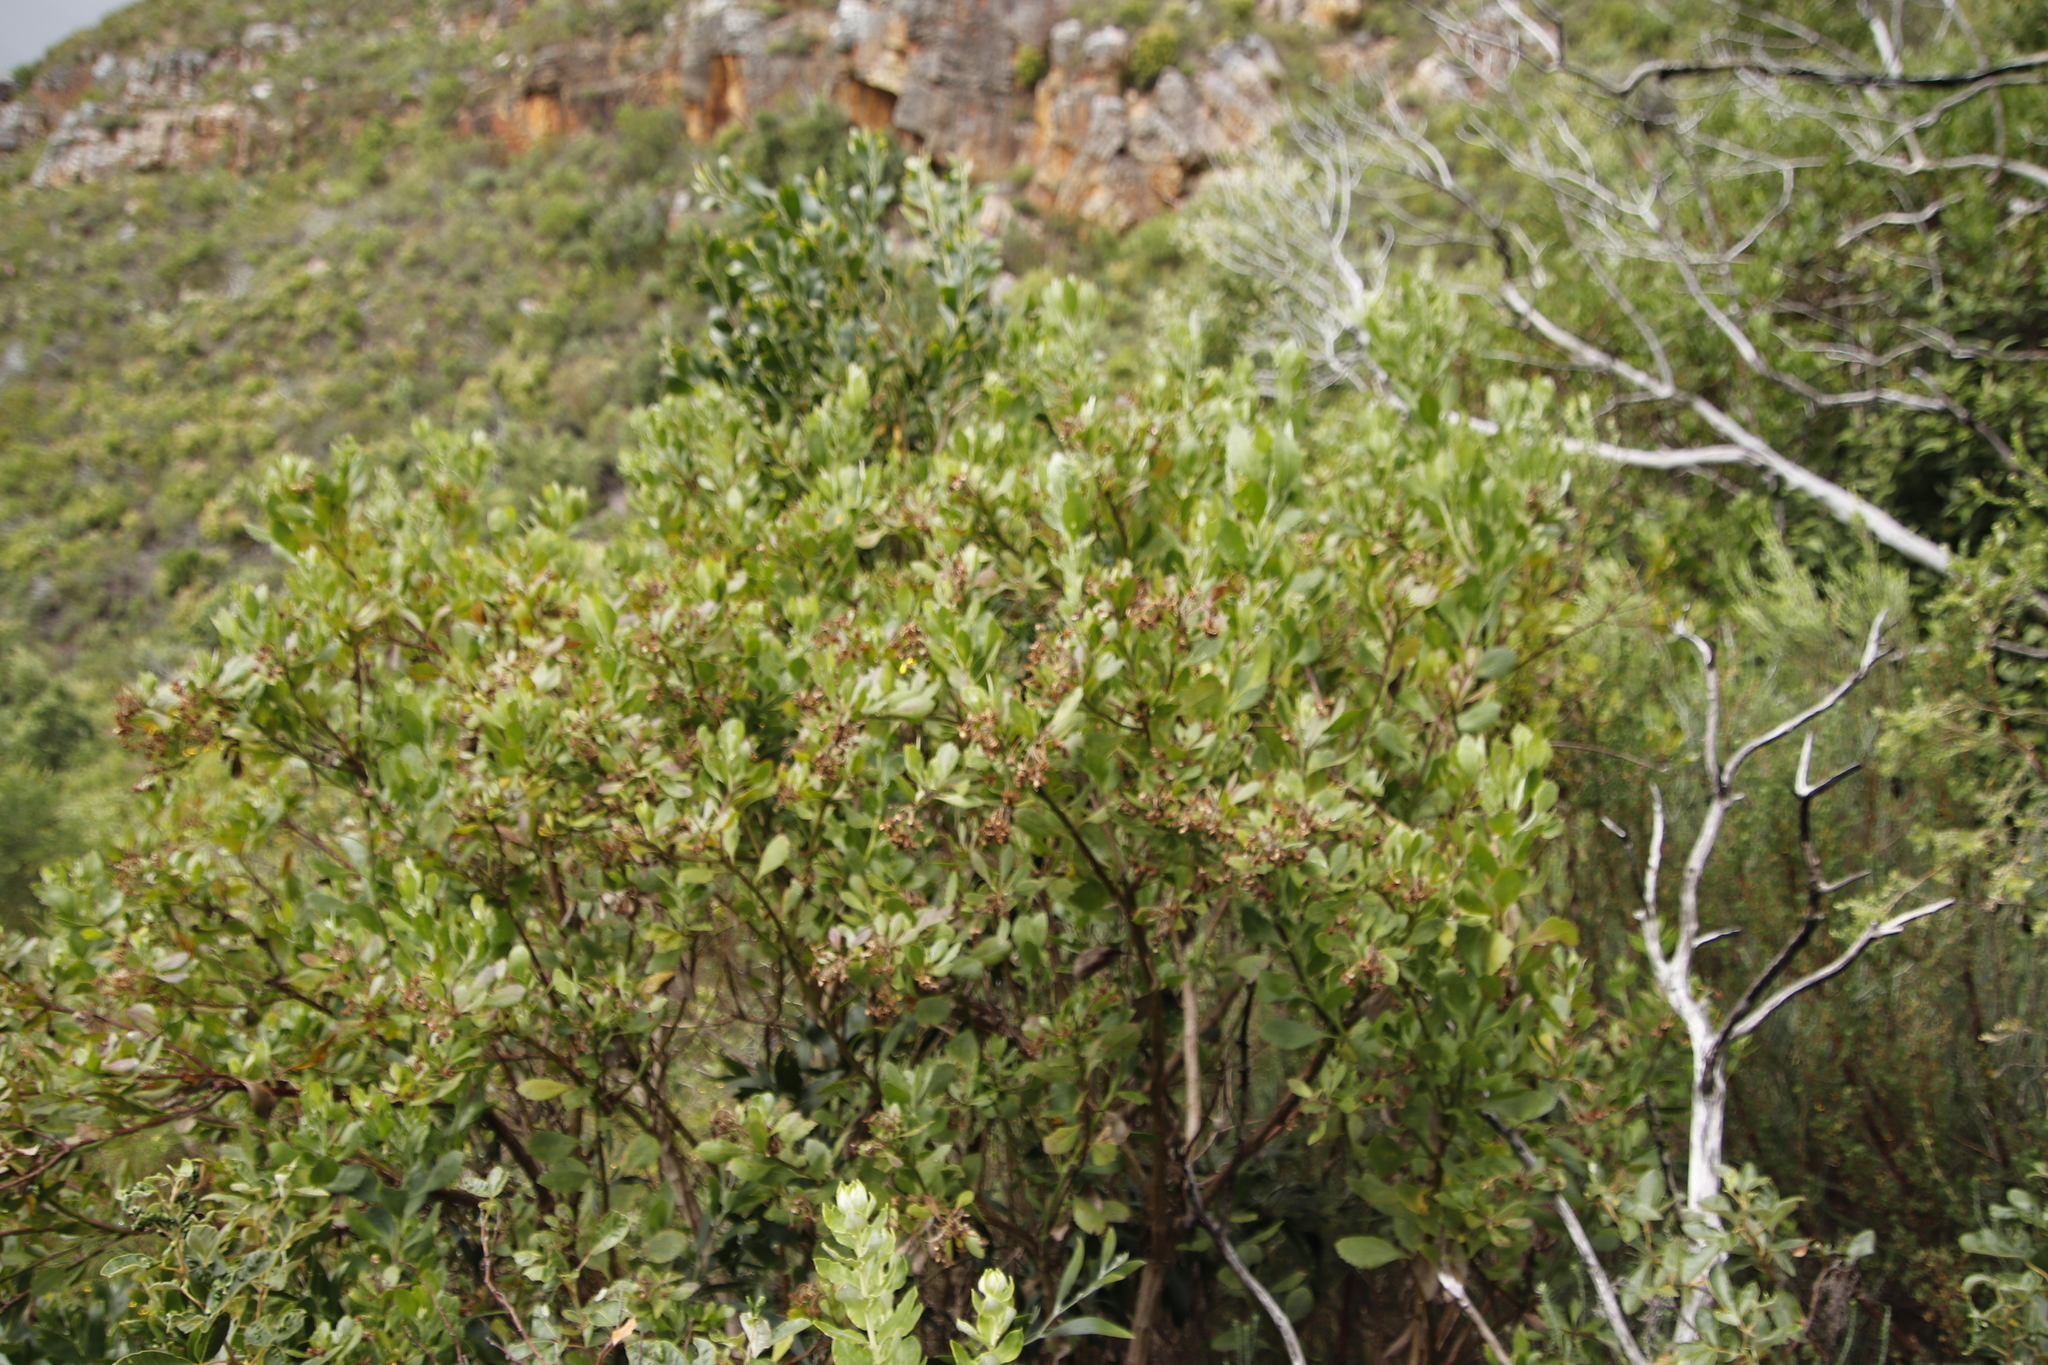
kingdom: Plantae
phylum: Tracheophyta
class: Magnoliopsida
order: Asterales
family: Asteraceae
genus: Osteospermum
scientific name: Osteospermum moniliferum
